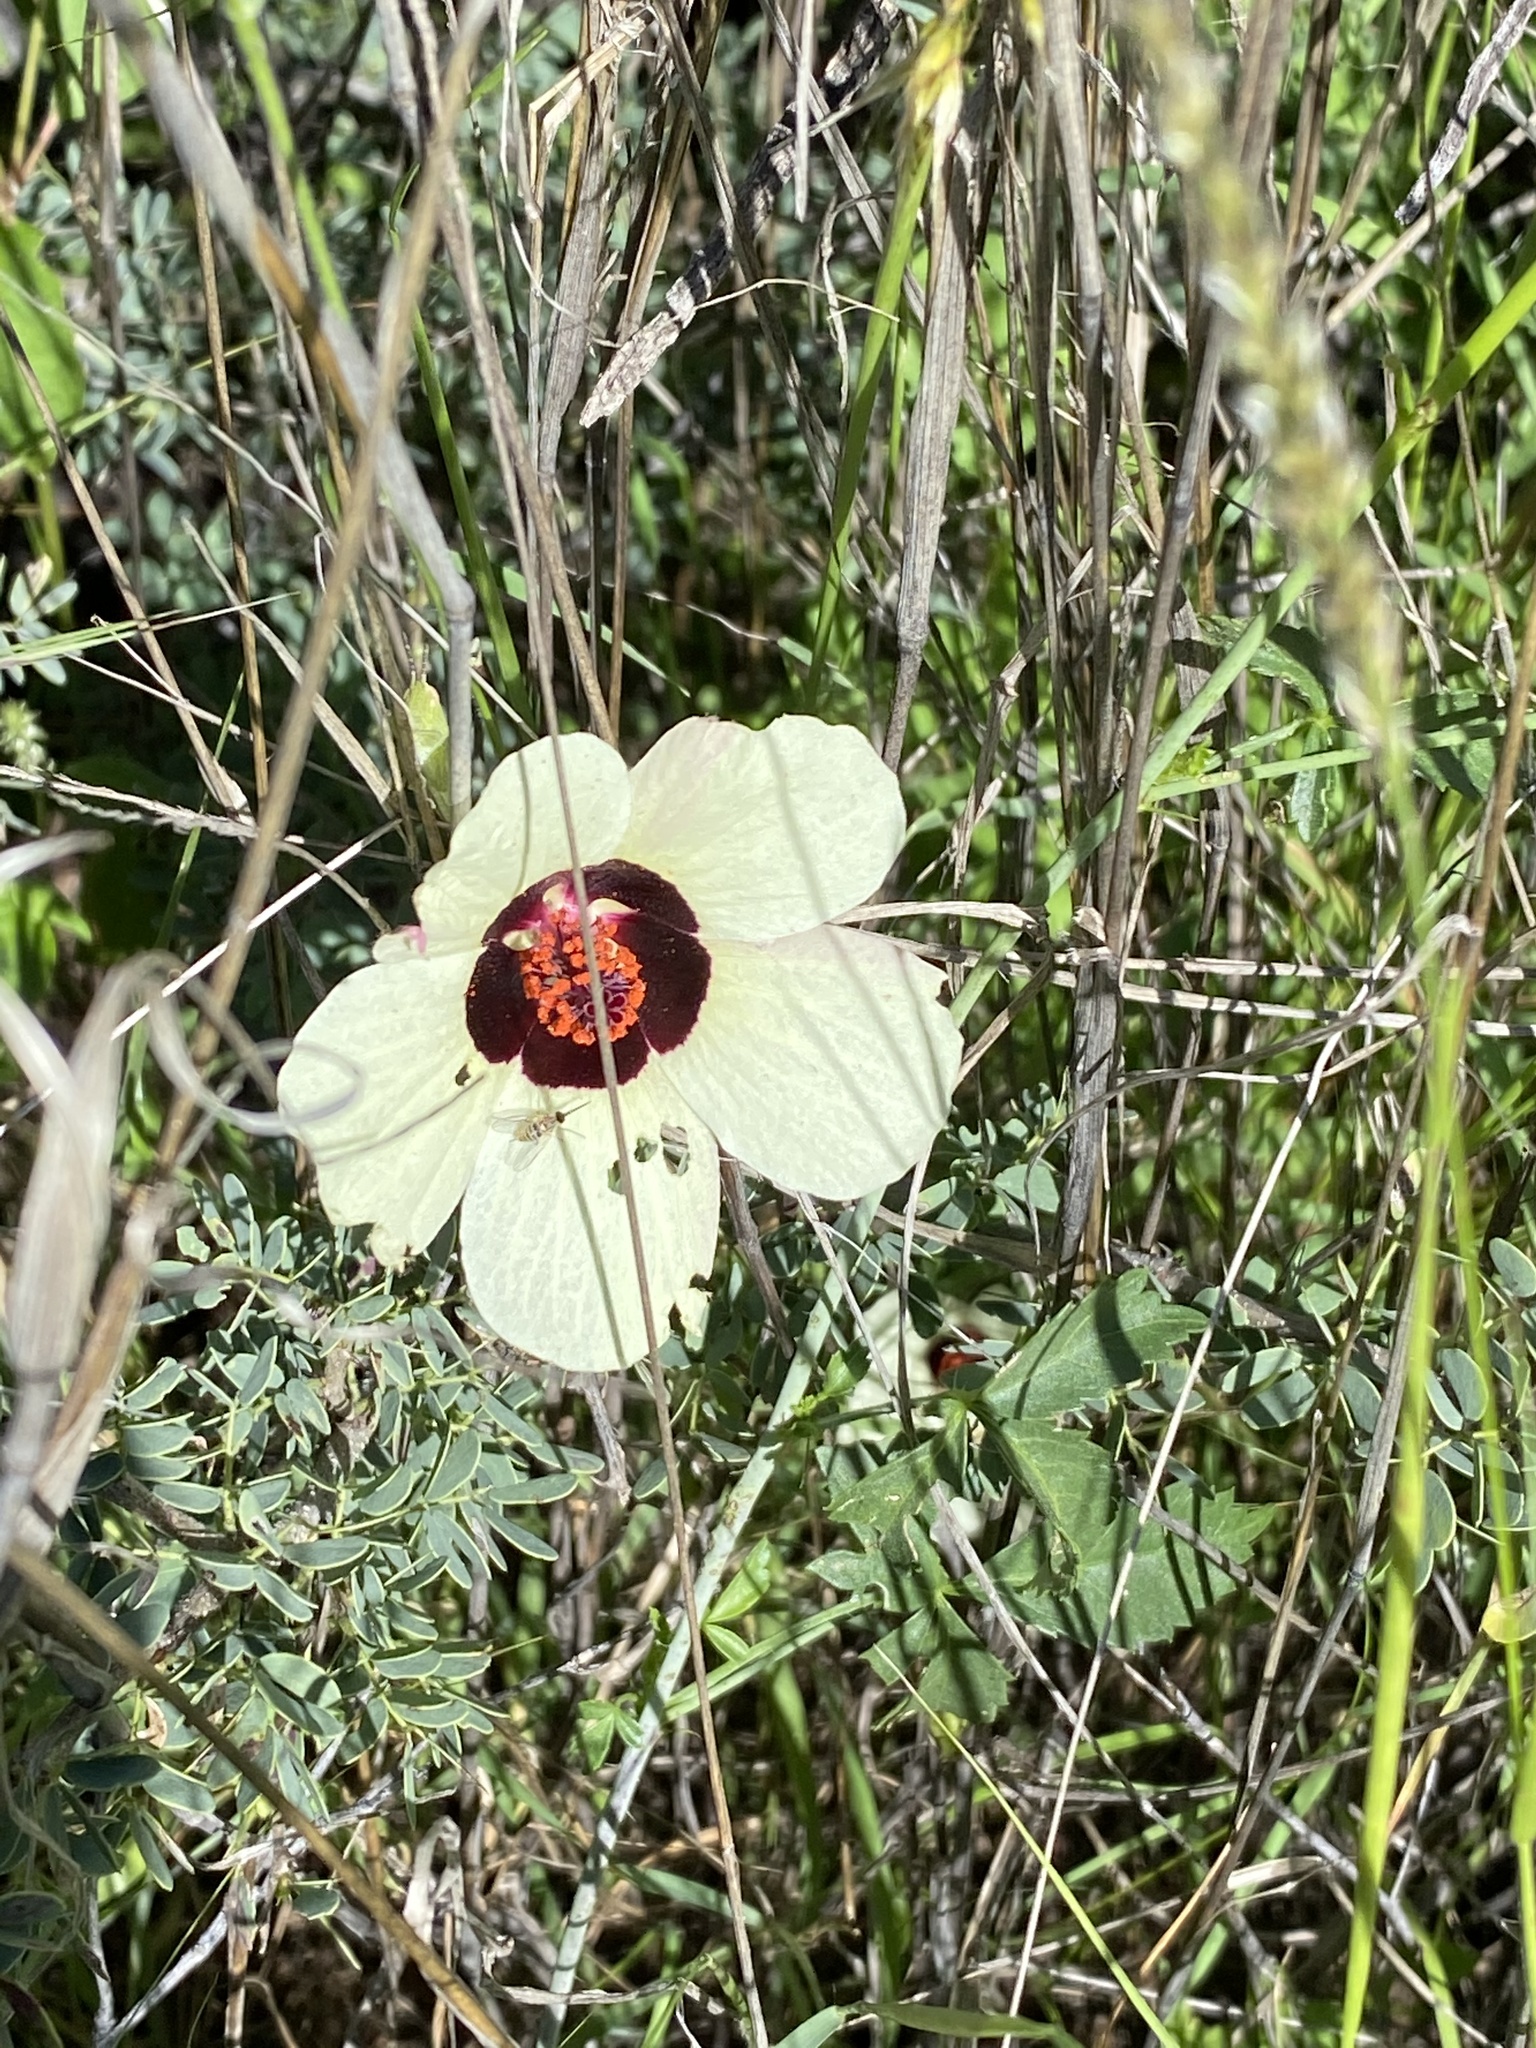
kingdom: Plantae
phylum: Tracheophyta
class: Magnoliopsida
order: Malvales
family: Malvaceae
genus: Hibiscus
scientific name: Hibiscus cannabinus
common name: Brown indianhemp
